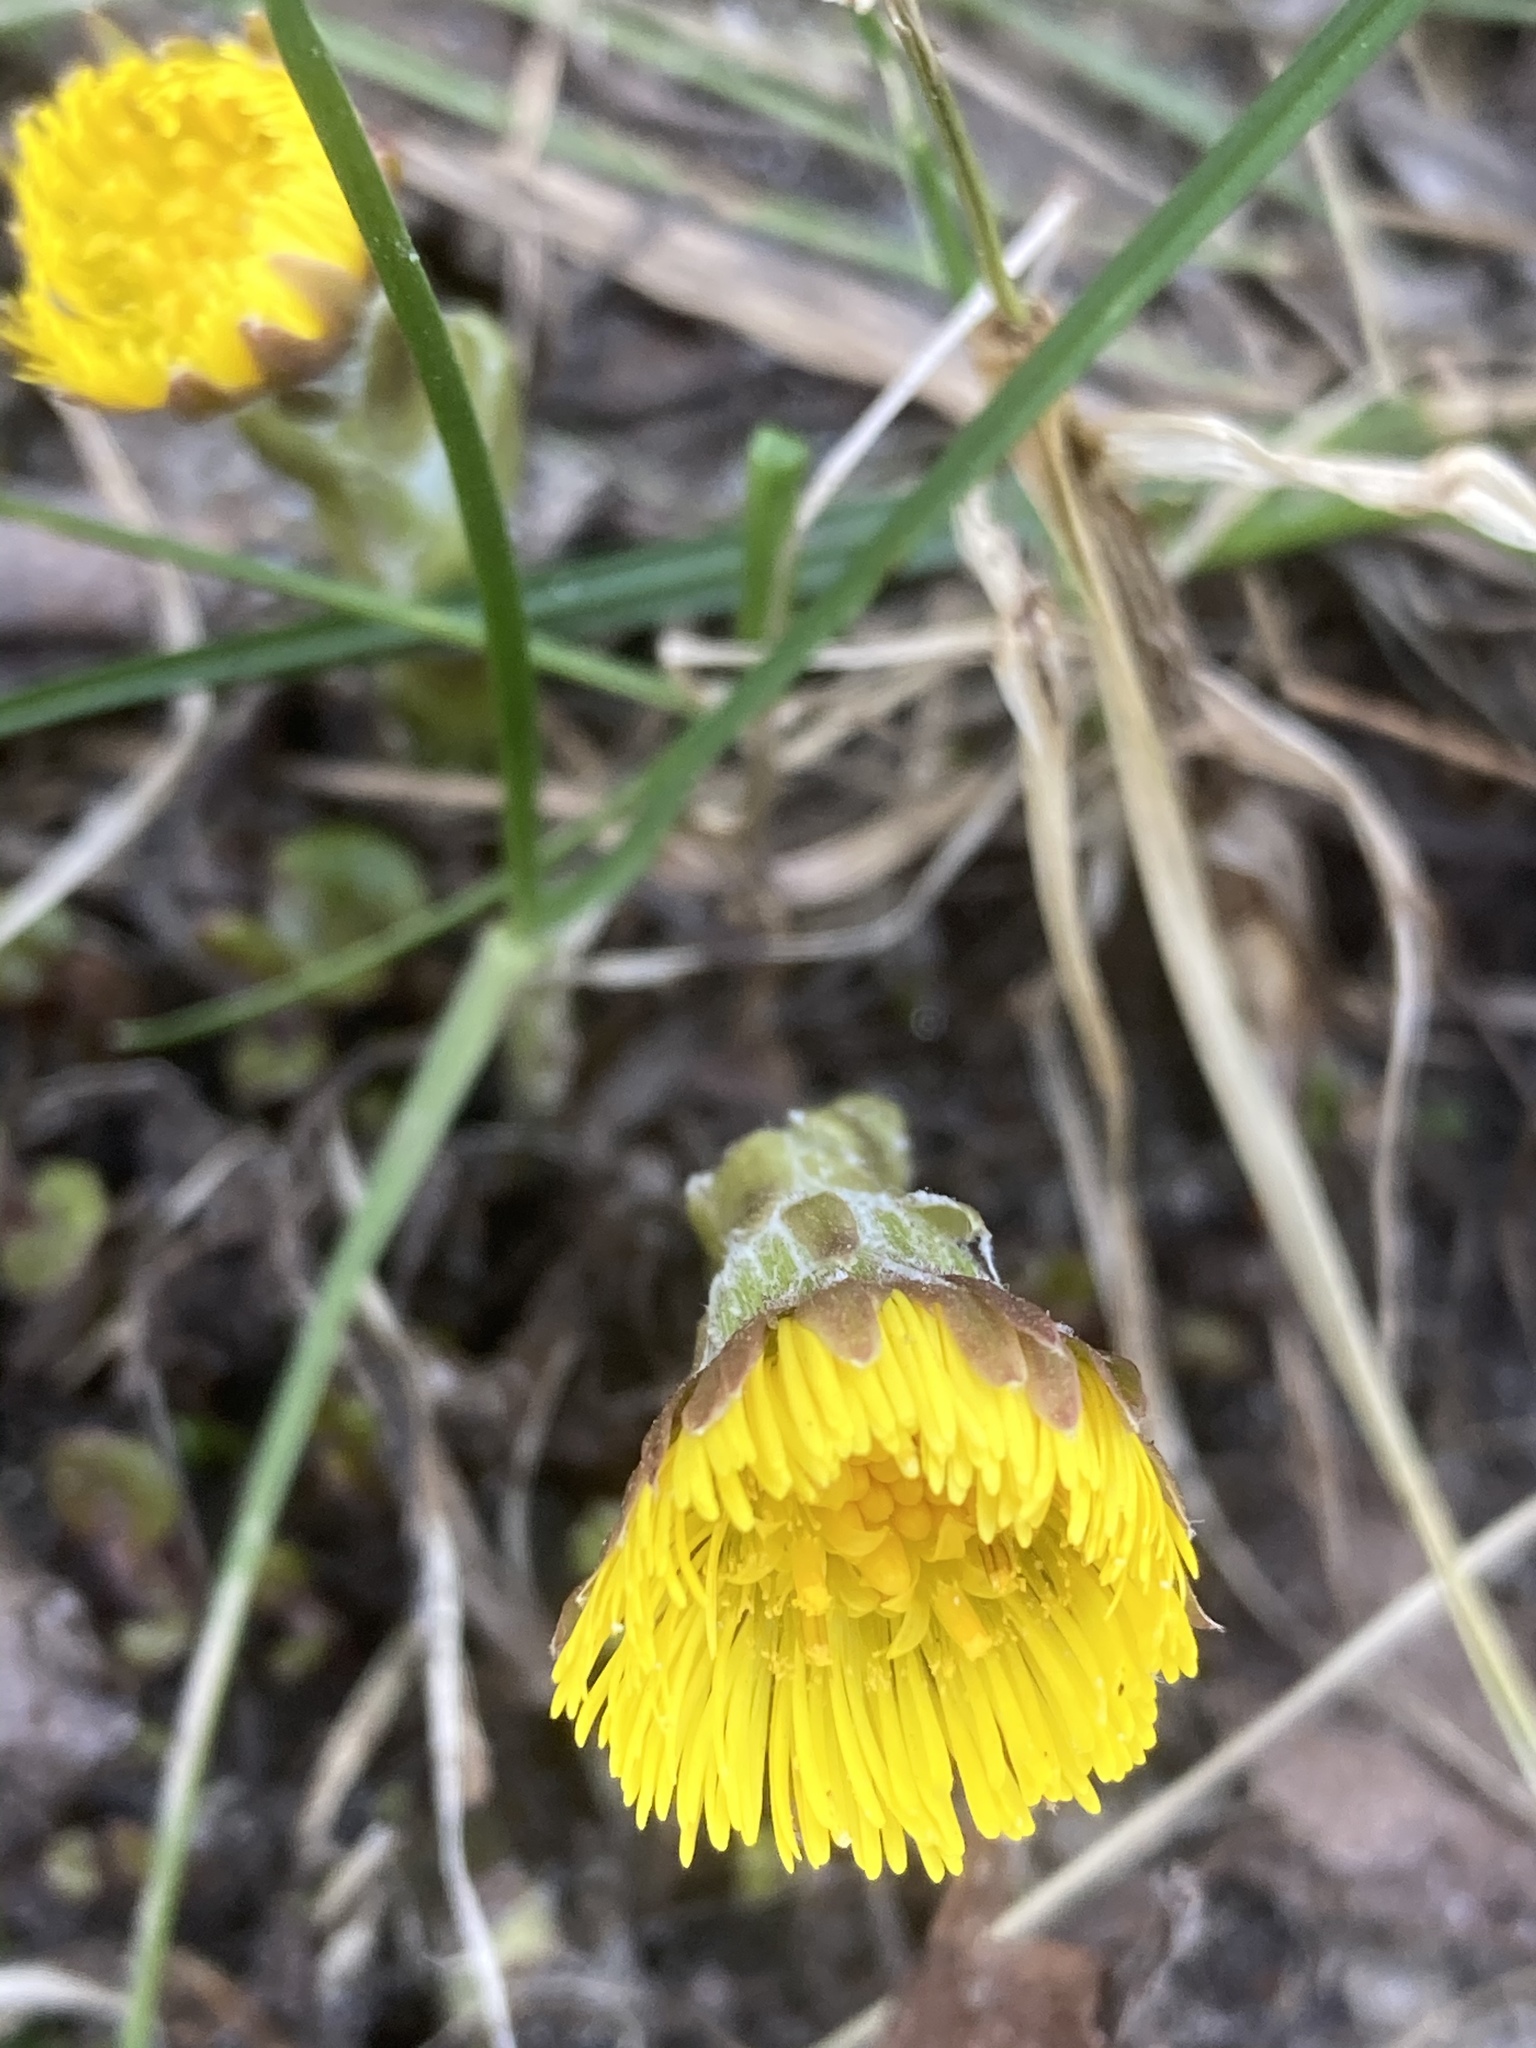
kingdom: Plantae
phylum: Tracheophyta
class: Magnoliopsida
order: Asterales
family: Asteraceae
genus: Tussilago
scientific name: Tussilago farfara
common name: Coltsfoot
